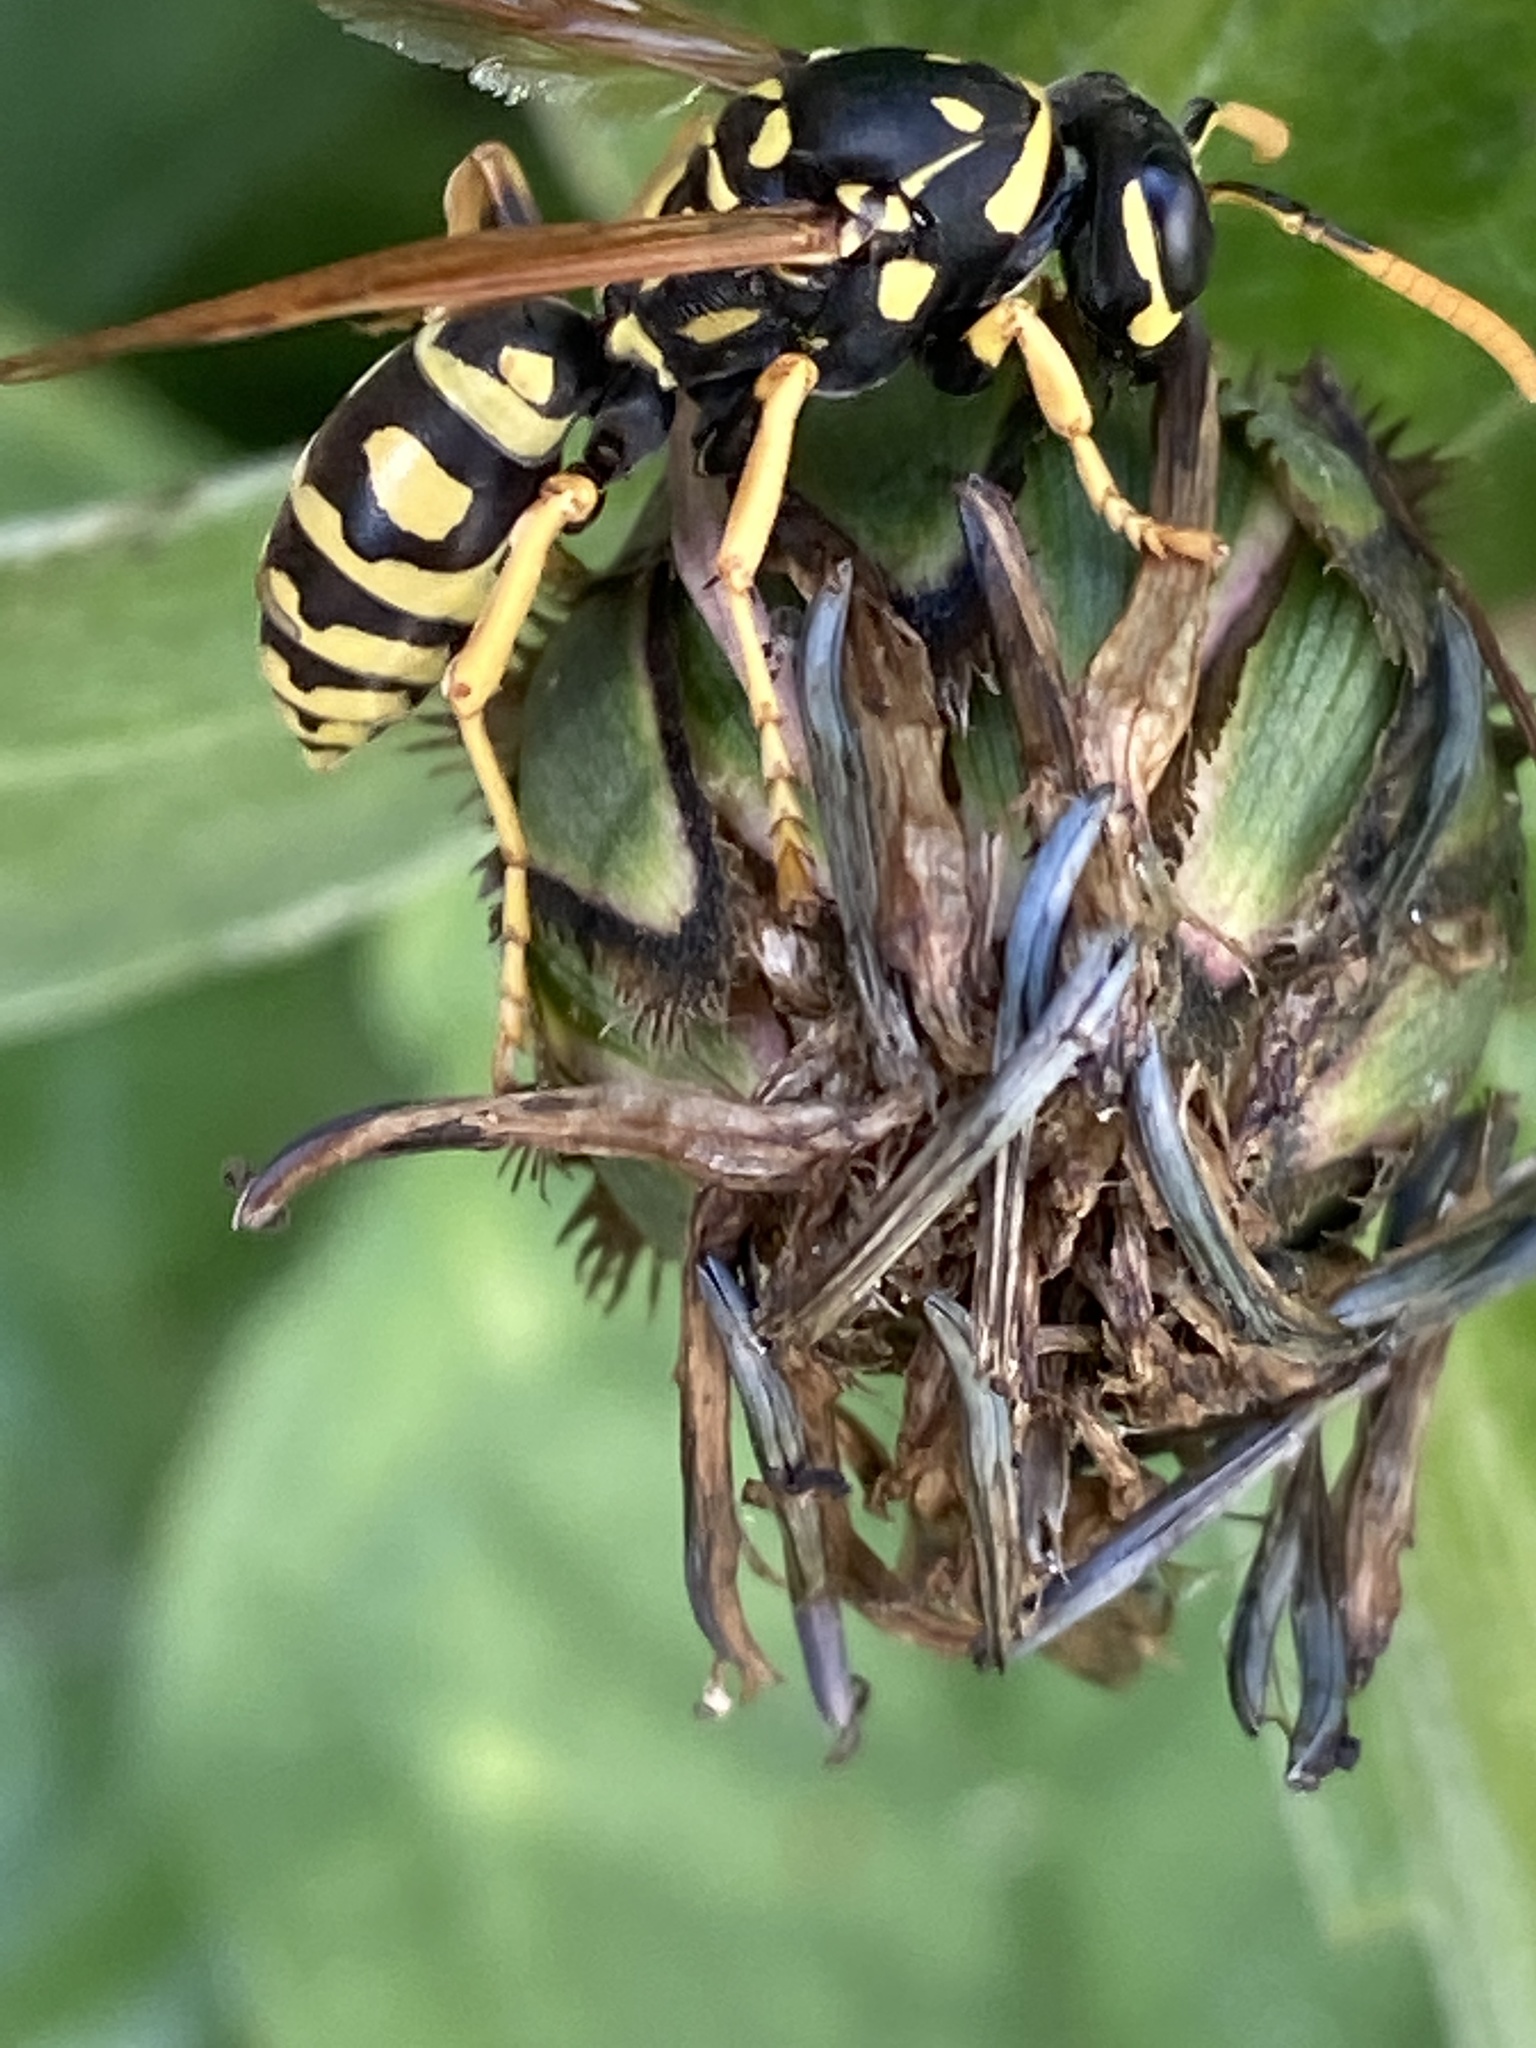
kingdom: Animalia
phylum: Arthropoda
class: Insecta
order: Hymenoptera
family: Eumenidae
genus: Polistes
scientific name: Polistes dominula
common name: Paper wasp
